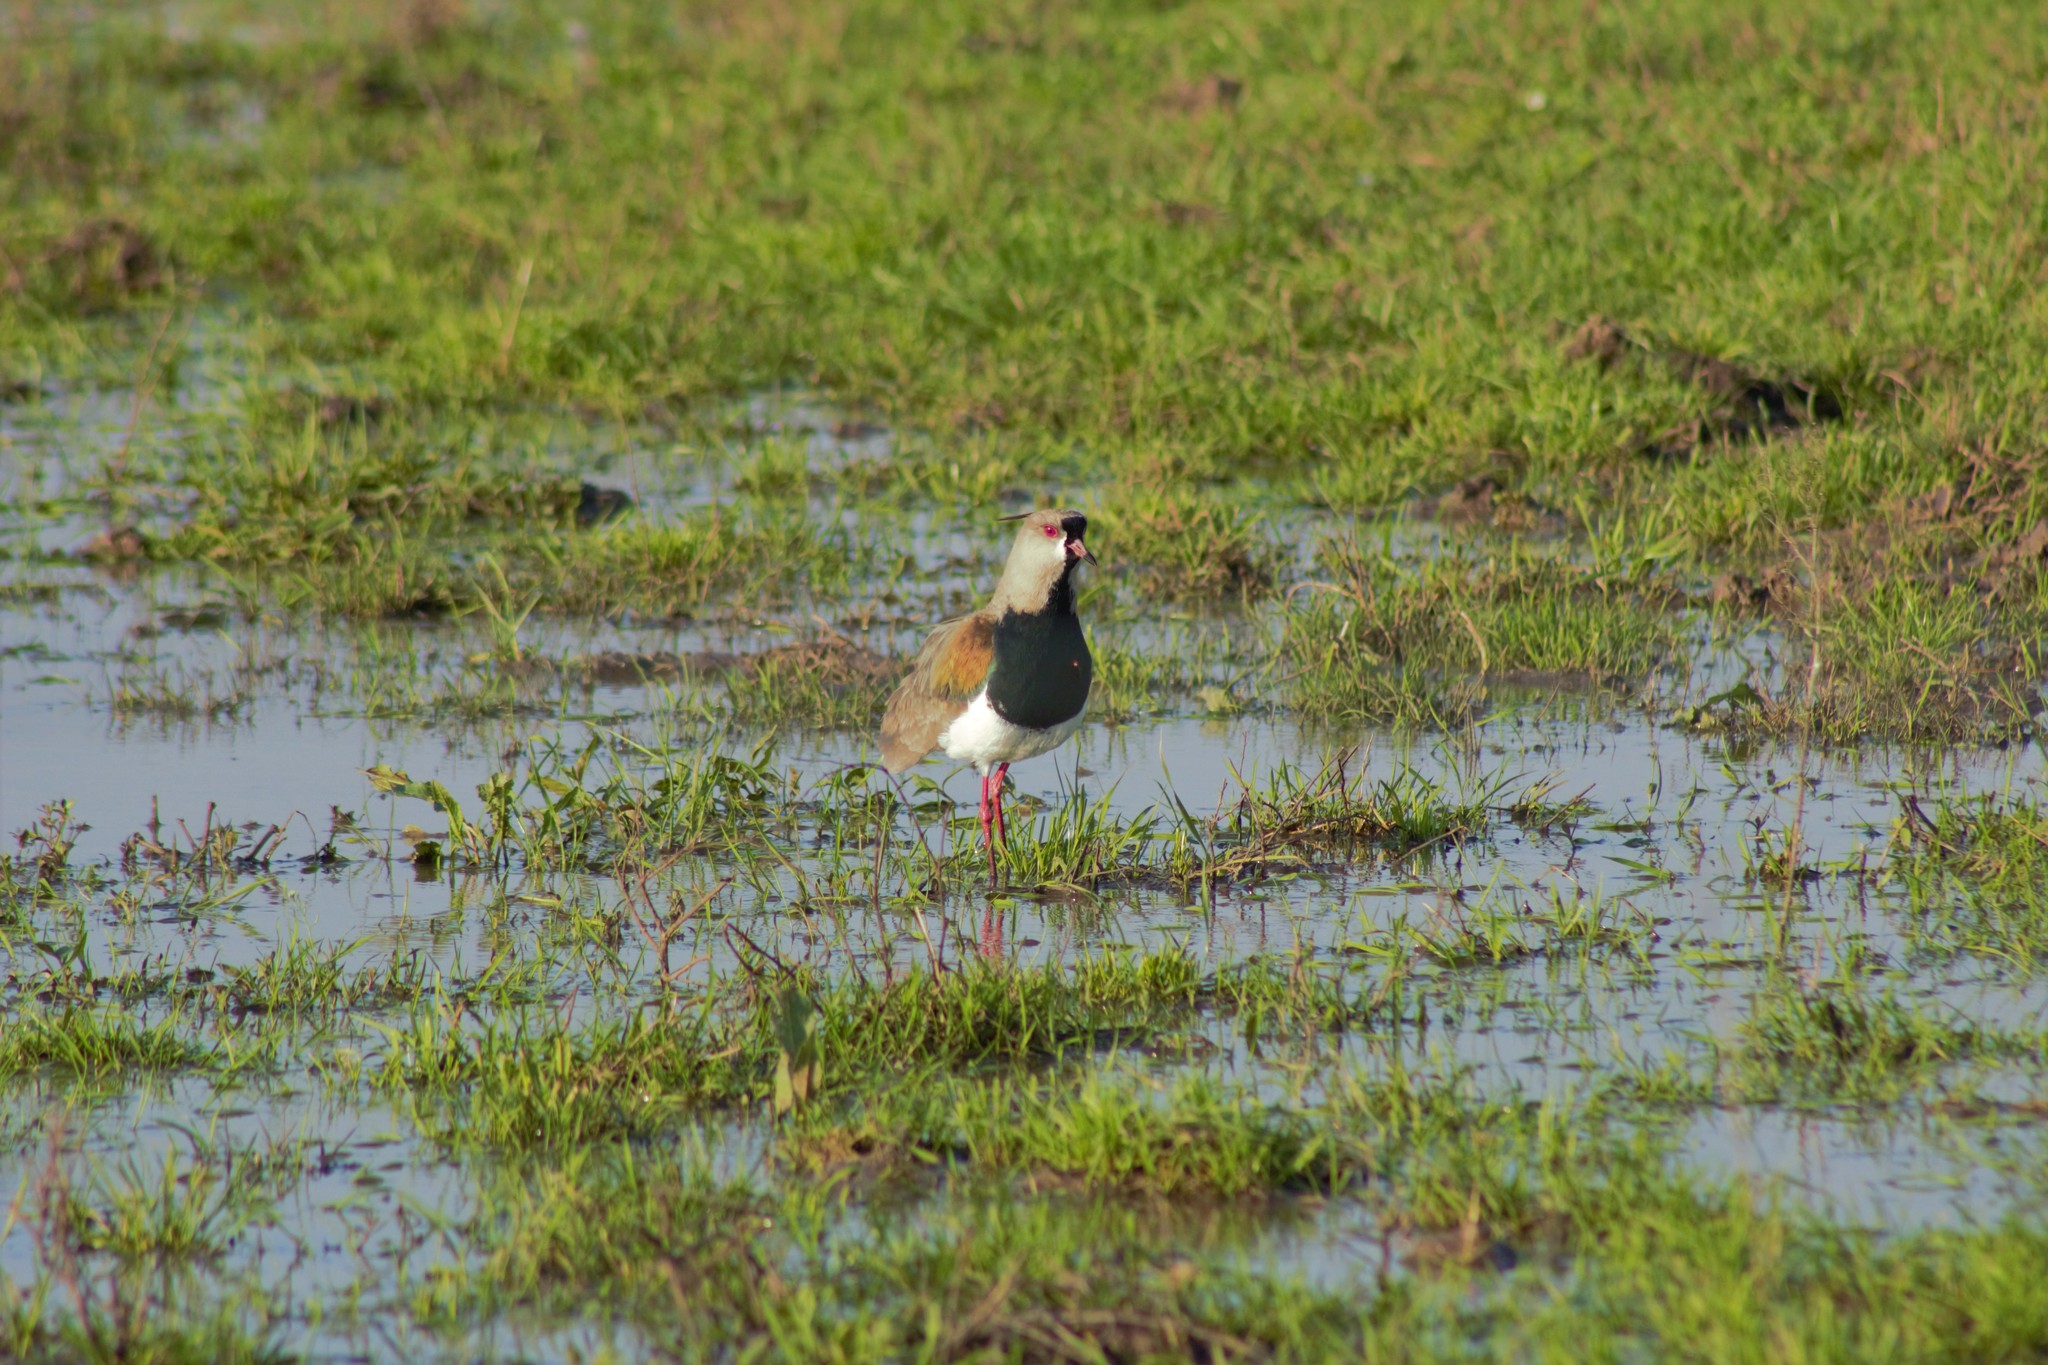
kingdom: Animalia
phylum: Chordata
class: Aves
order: Charadriiformes
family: Charadriidae
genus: Vanellus
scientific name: Vanellus chilensis
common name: Southern lapwing
